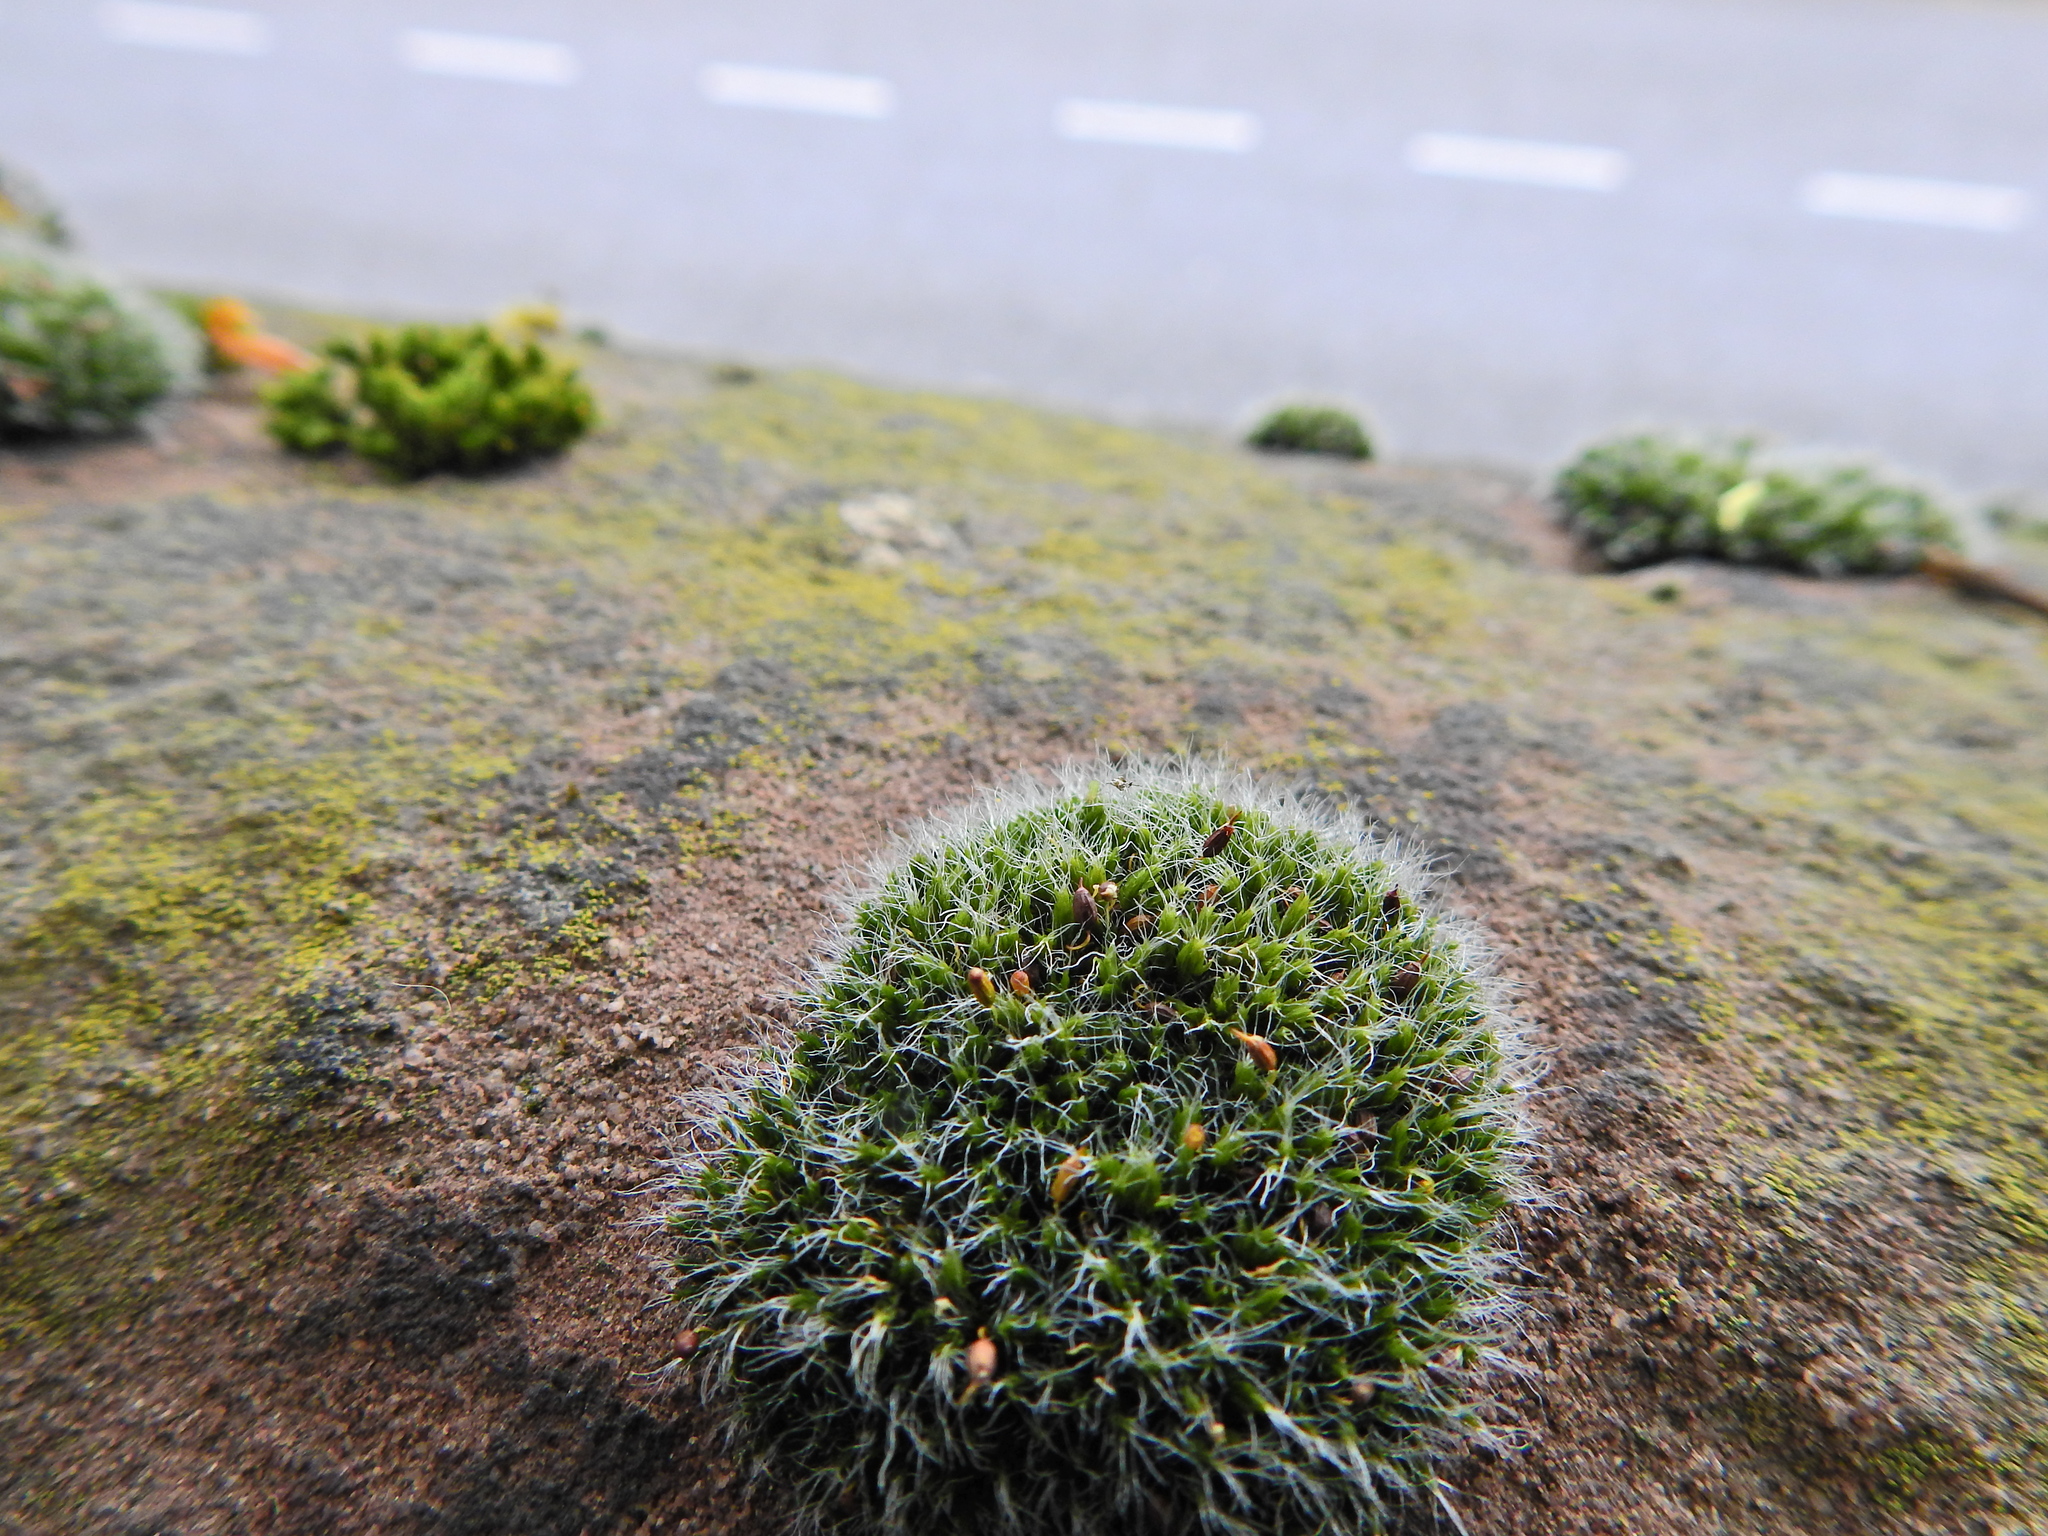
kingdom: Plantae
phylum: Bryophyta
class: Bryopsida
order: Grimmiales
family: Grimmiaceae
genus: Grimmia
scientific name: Grimmia pulvinata
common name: Grey-cushioned grimmia
